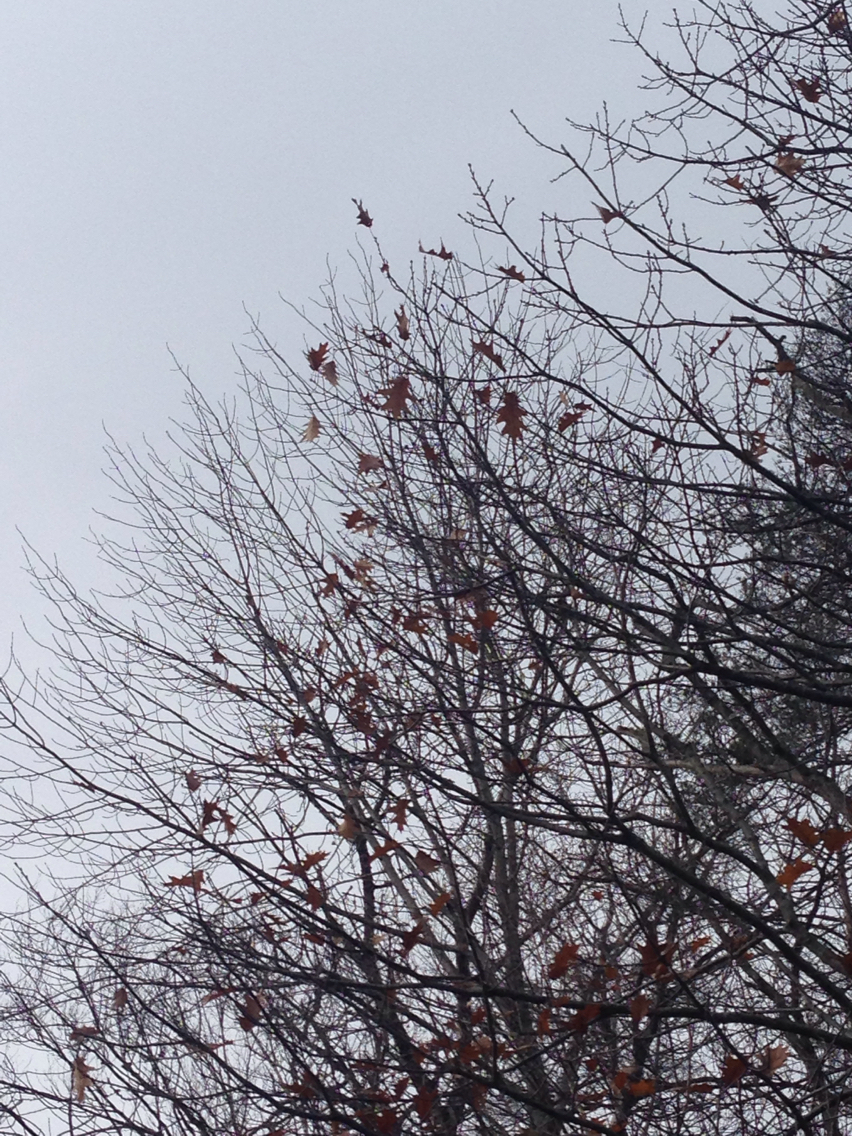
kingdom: Plantae
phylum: Tracheophyta
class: Magnoliopsida
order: Fagales
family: Fagaceae
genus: Quercus
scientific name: Quercus rubra
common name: Red oak
